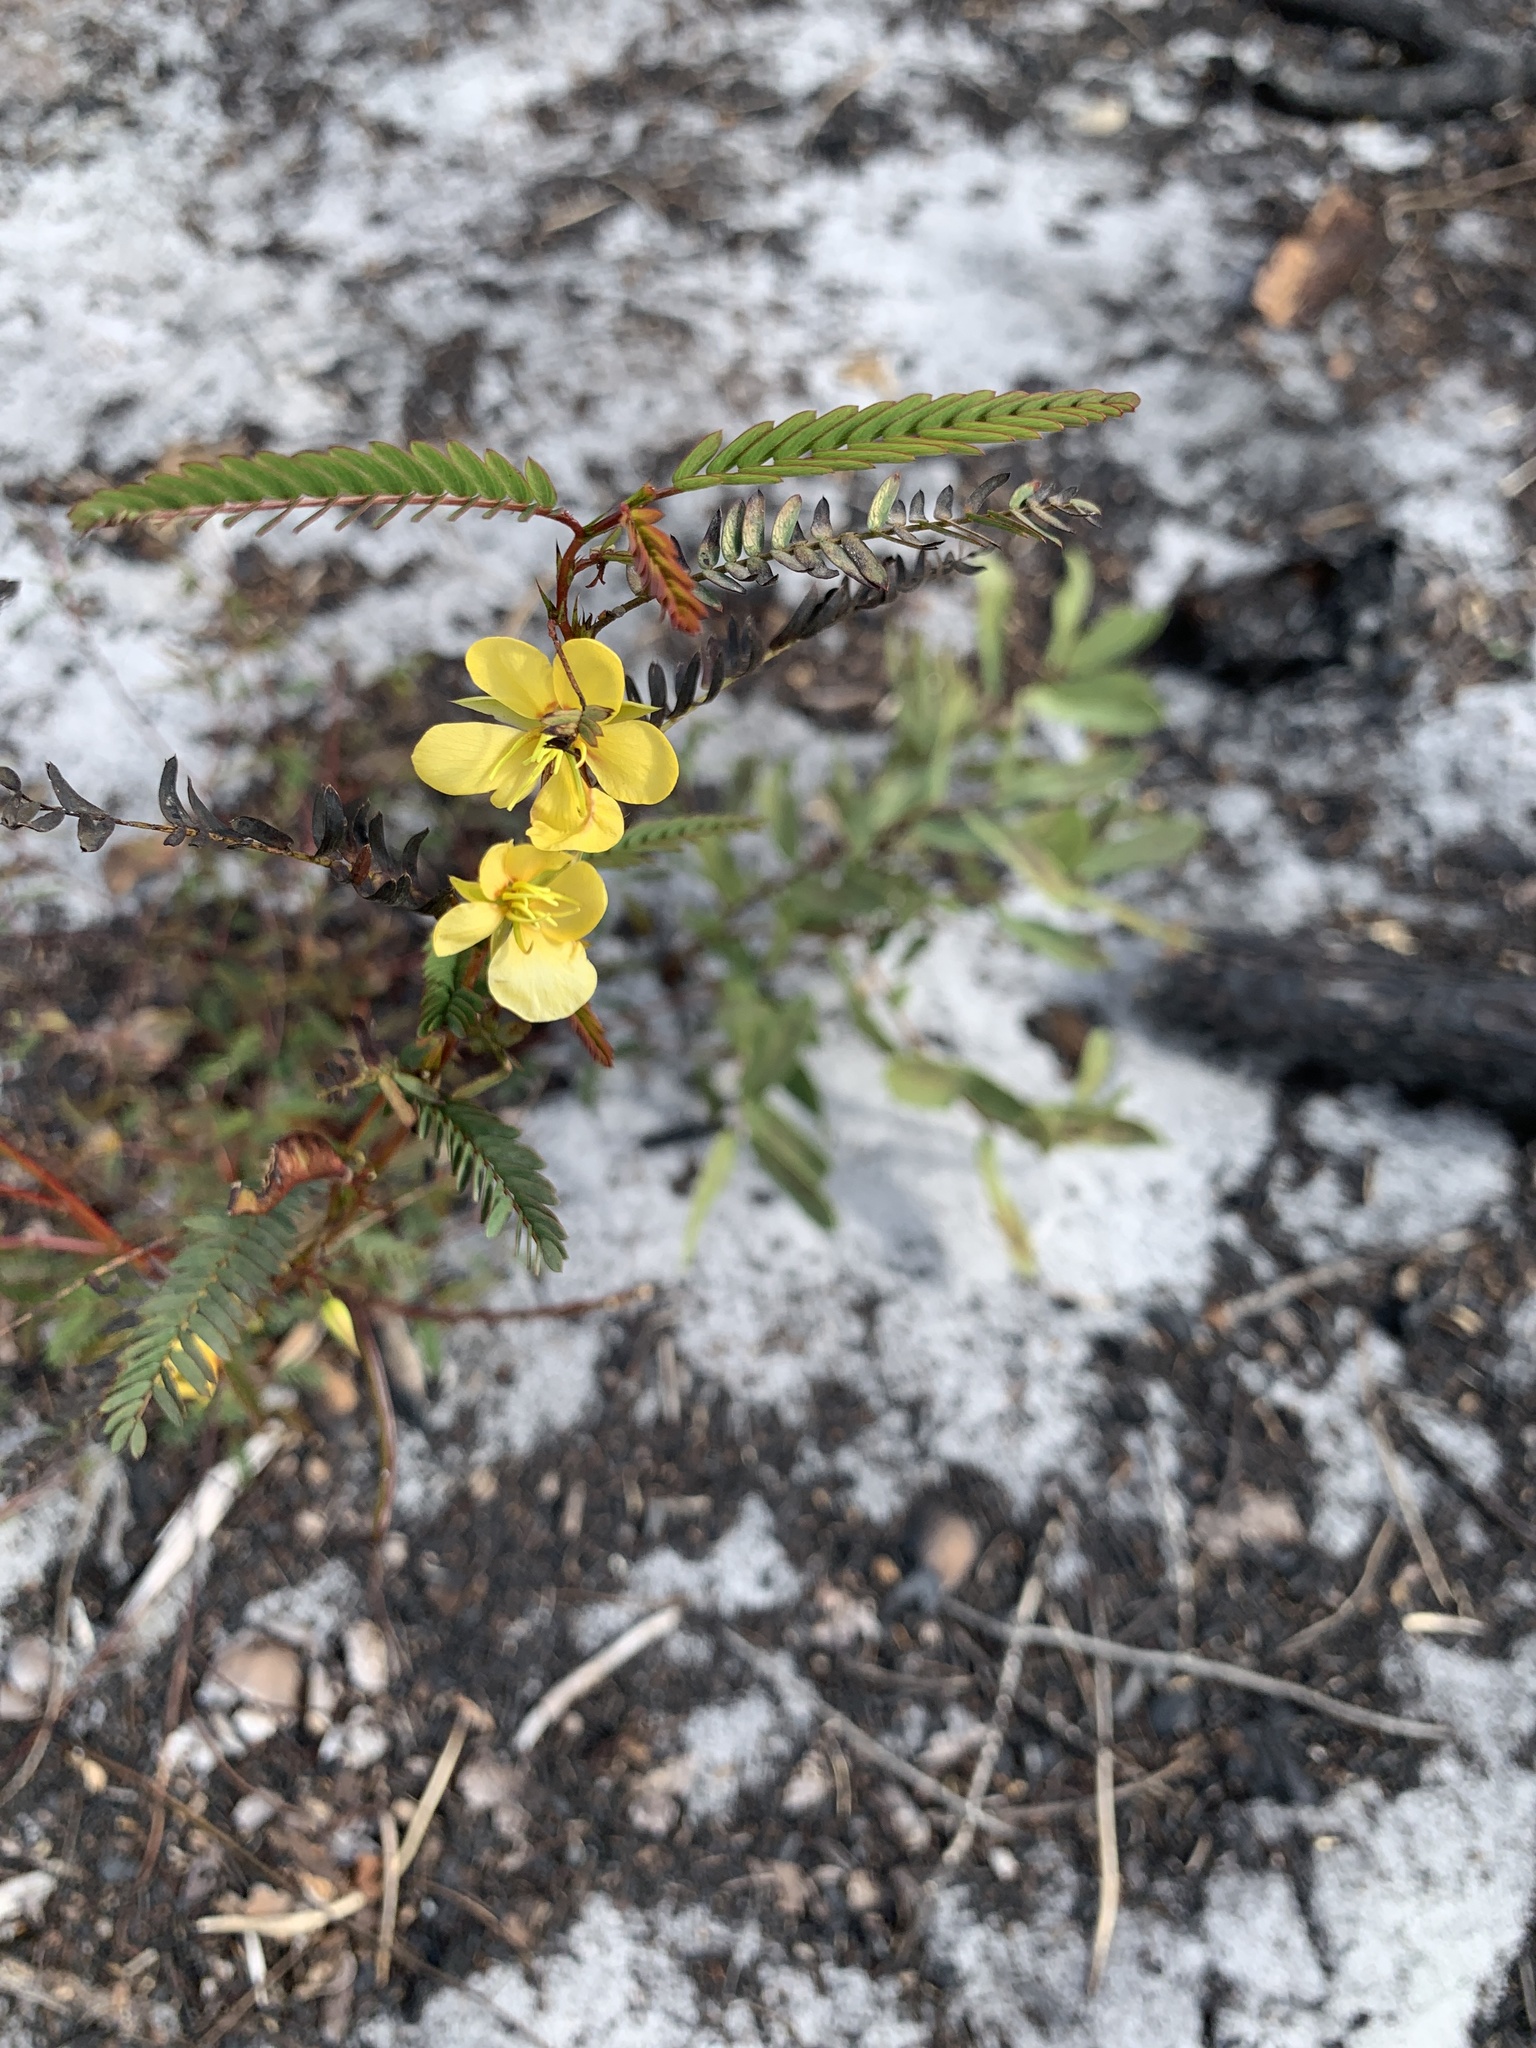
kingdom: Plantae
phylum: Tracheophyta
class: Magnoliopsida
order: Fabales
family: Fabaceae
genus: Chamaecrista
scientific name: Chamaecrista fasciculata
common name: Golden cassia
